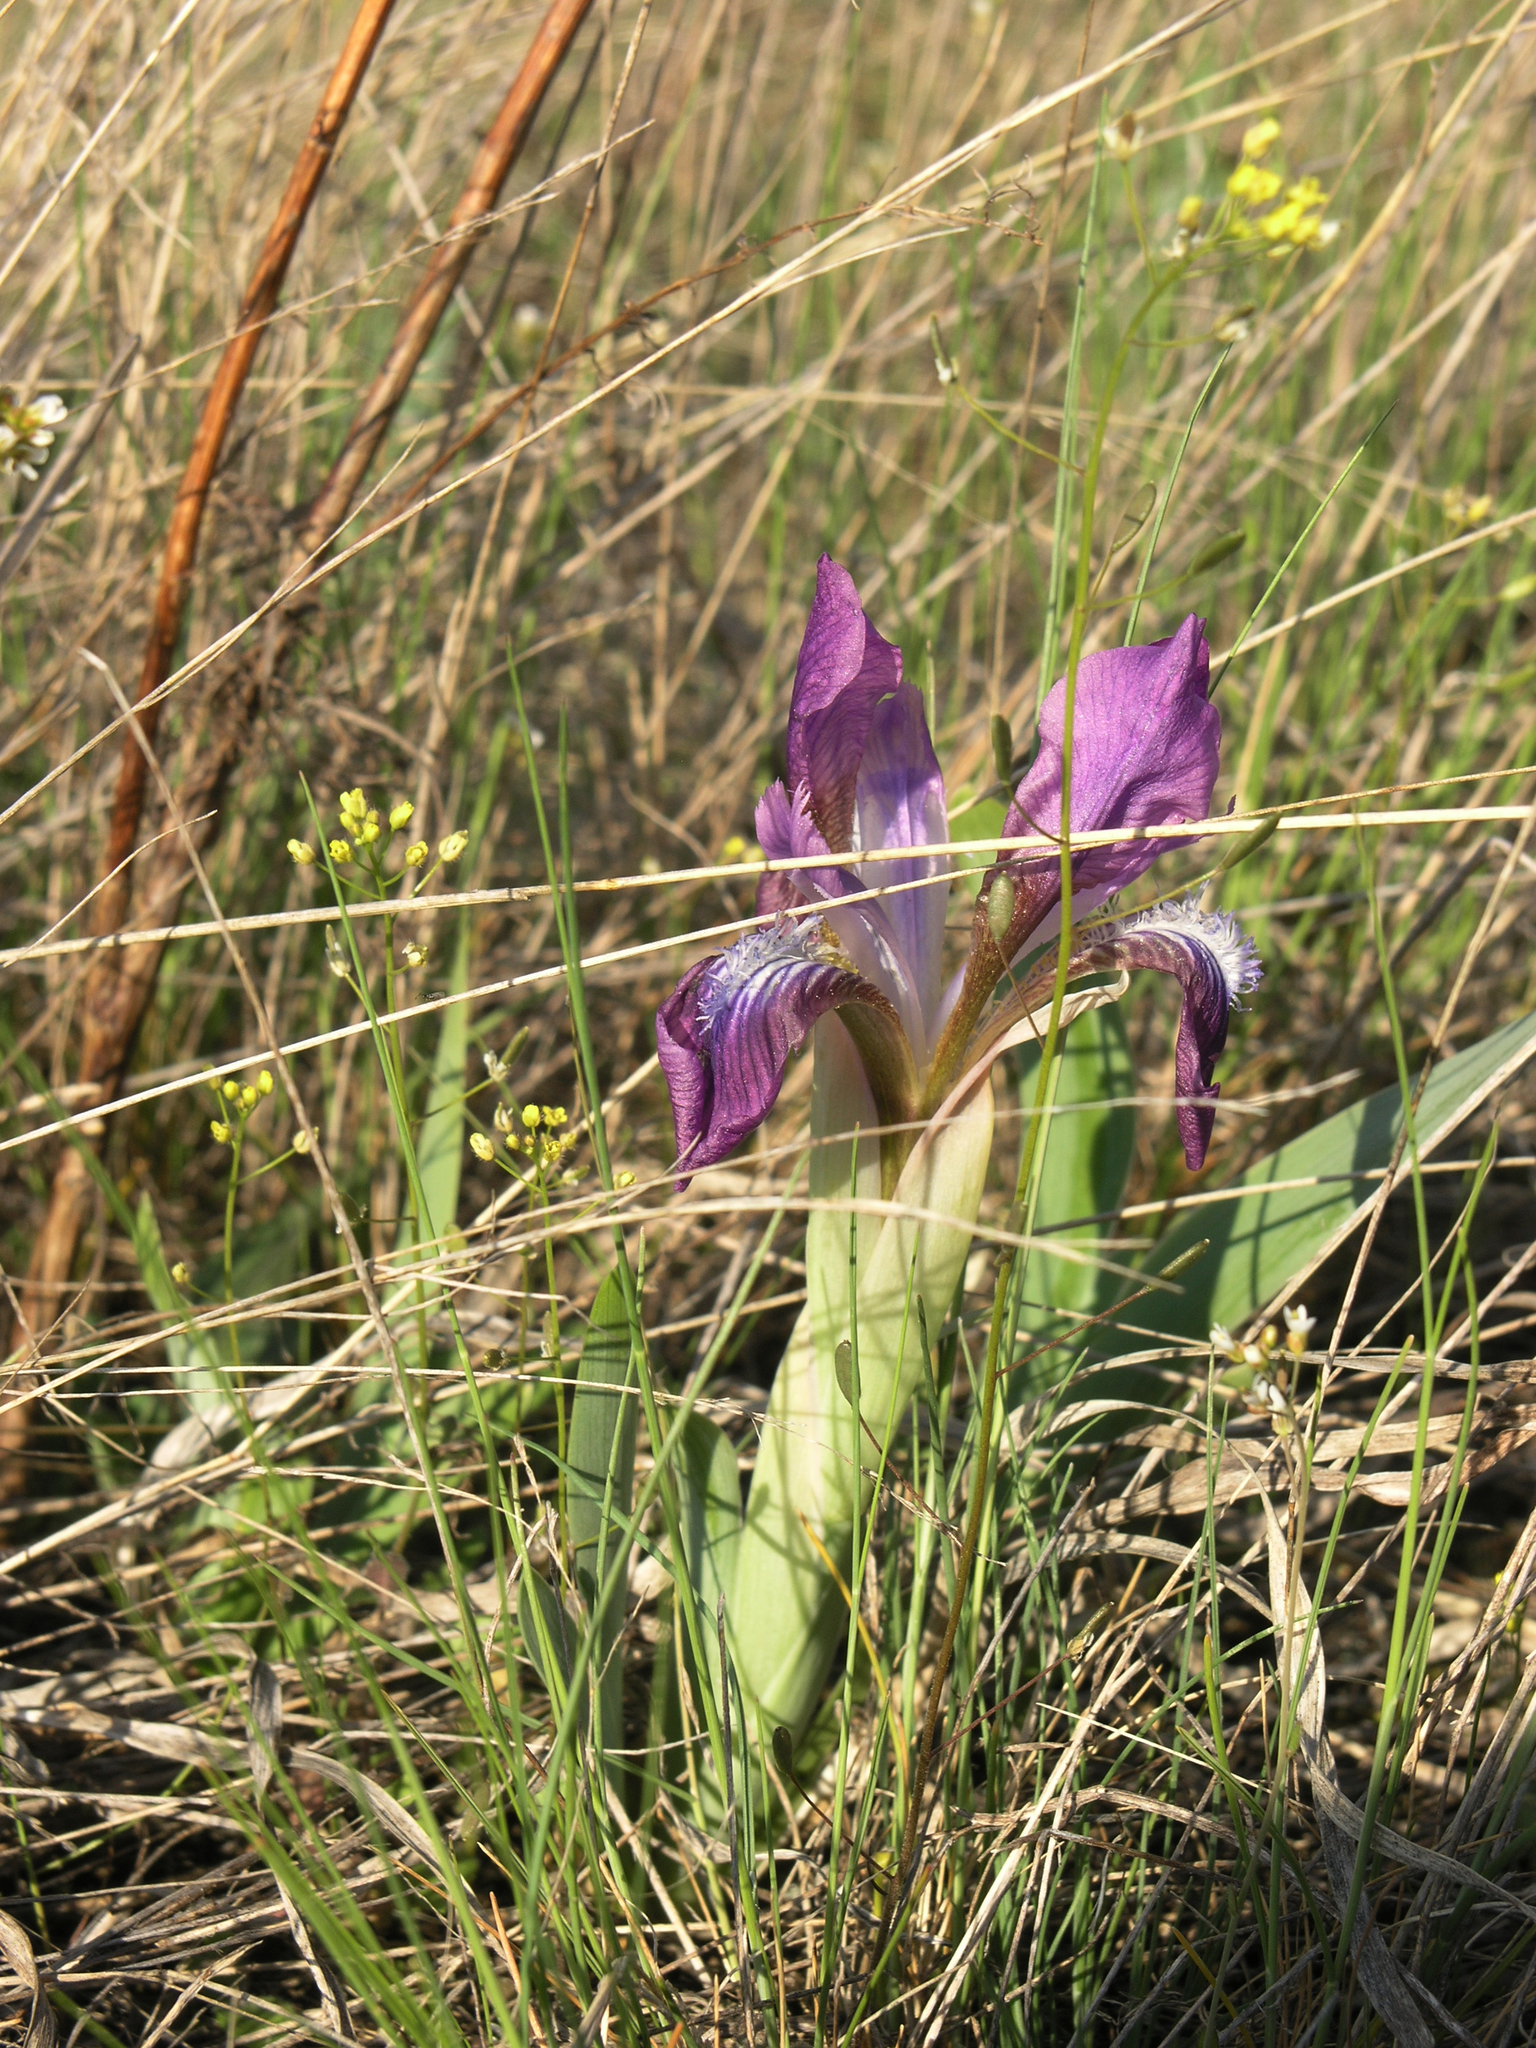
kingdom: Plantae
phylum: Tracheophyta
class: Liliopsida
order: Asparagales
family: Iridaceae
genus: Iris
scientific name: Iris glaucescens
